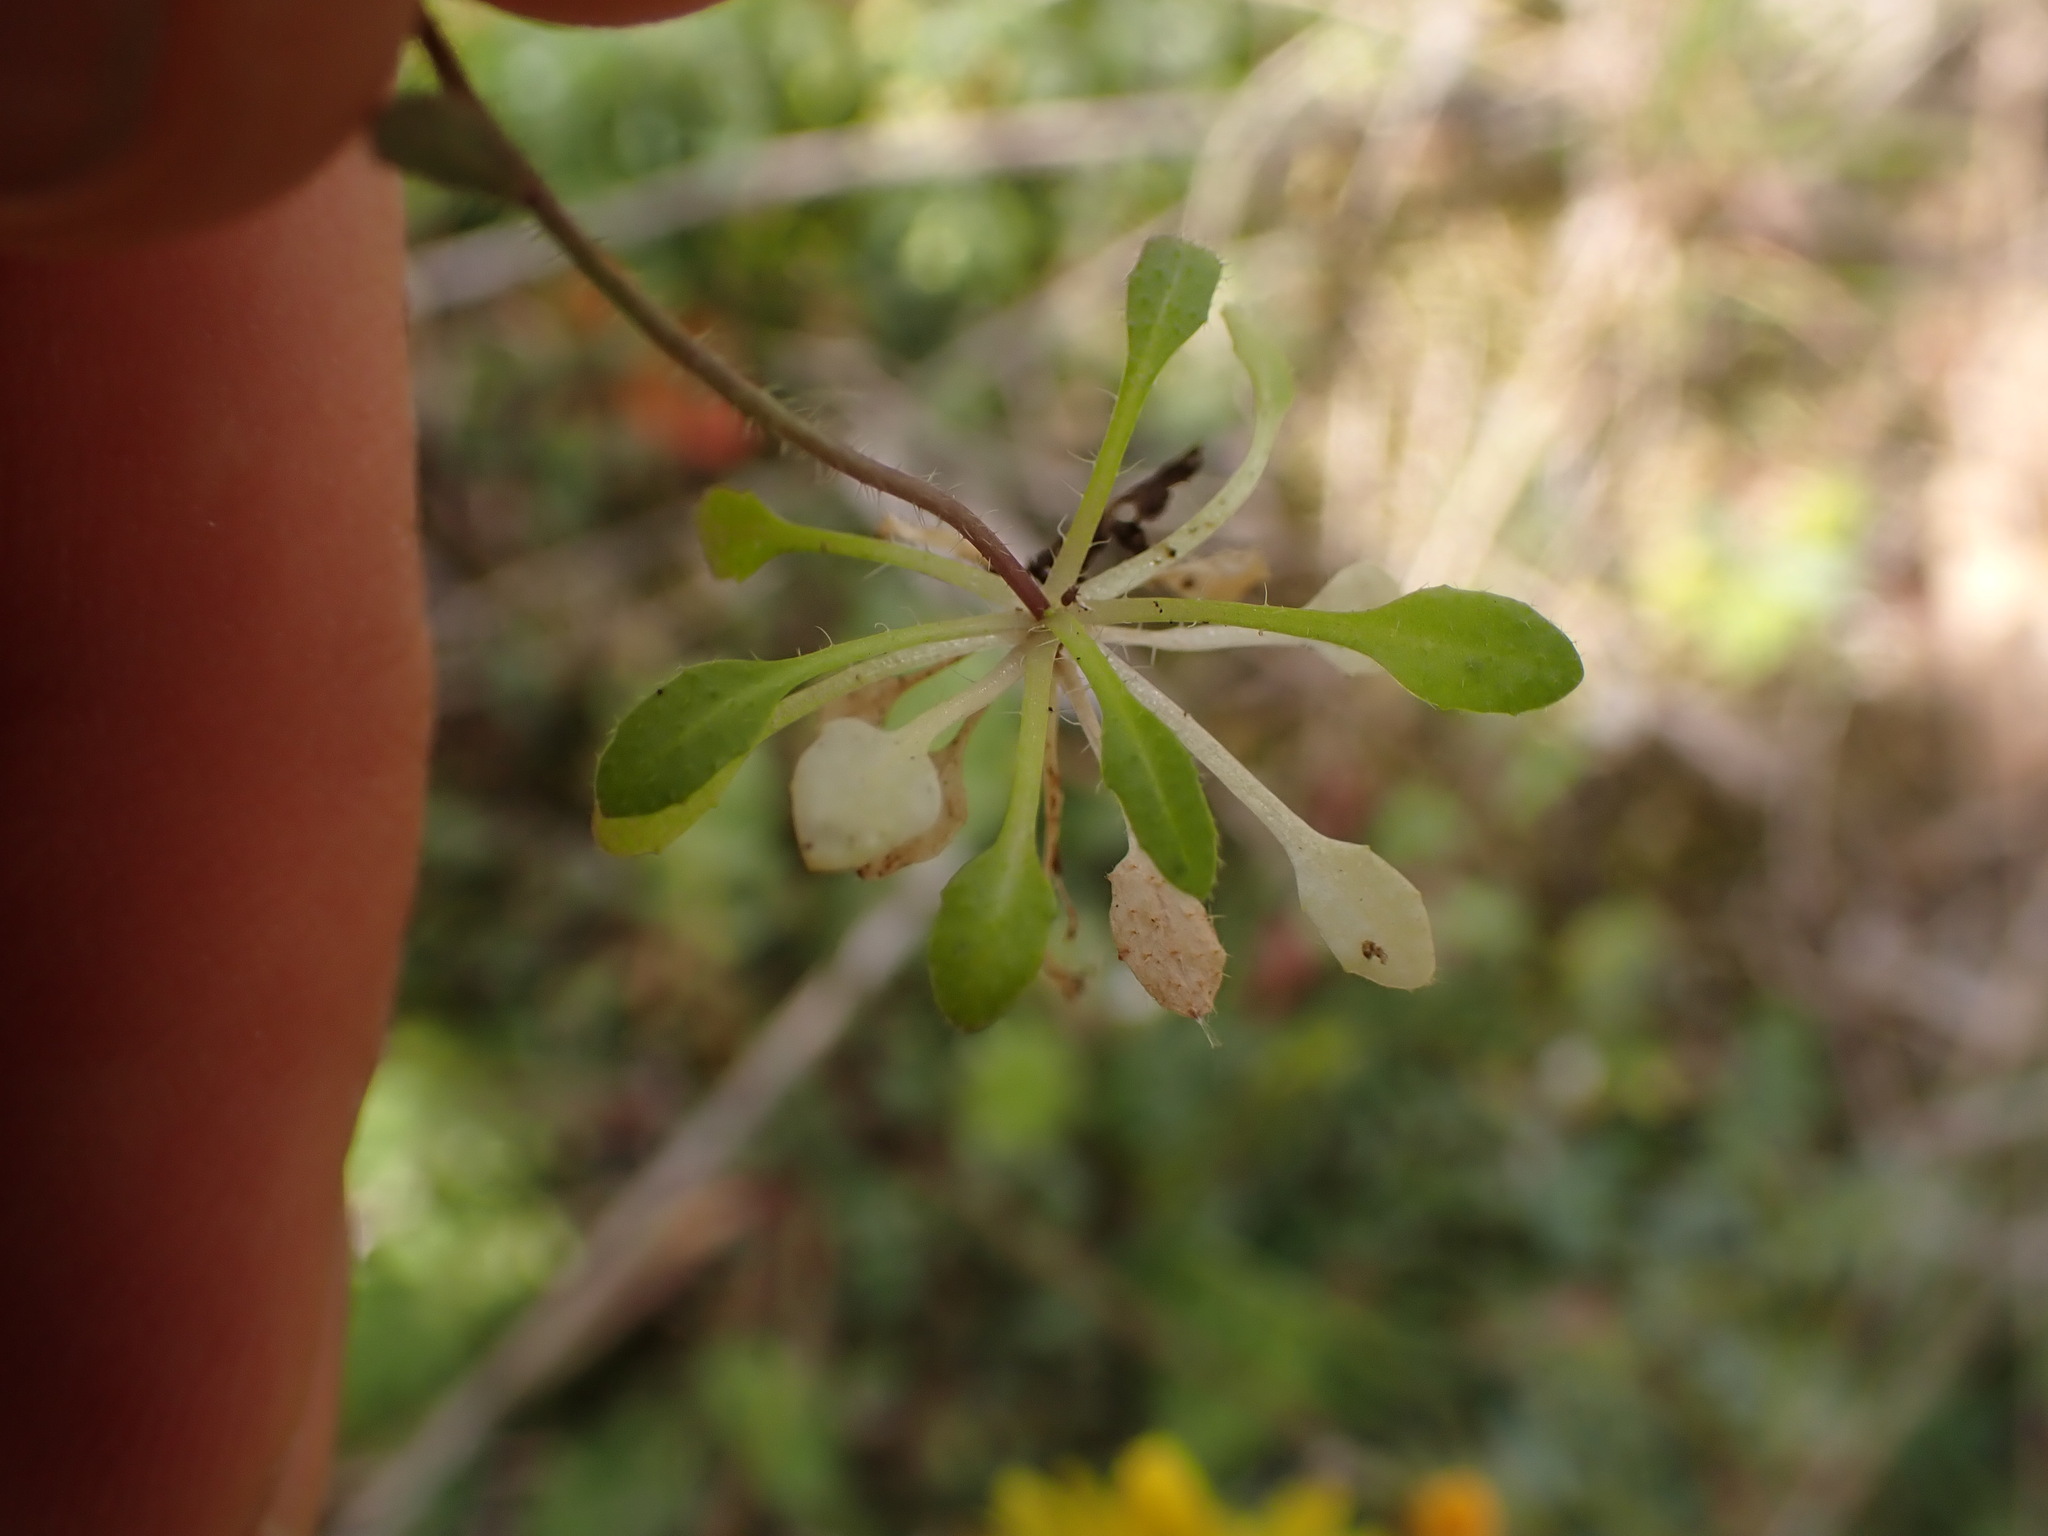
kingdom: Plantae
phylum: Tracheophyta
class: Magnoliopsida
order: Brassicales
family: Brassicaceae
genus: Arabidopsis
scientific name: Arabidopsis thaliana
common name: Thale cress
